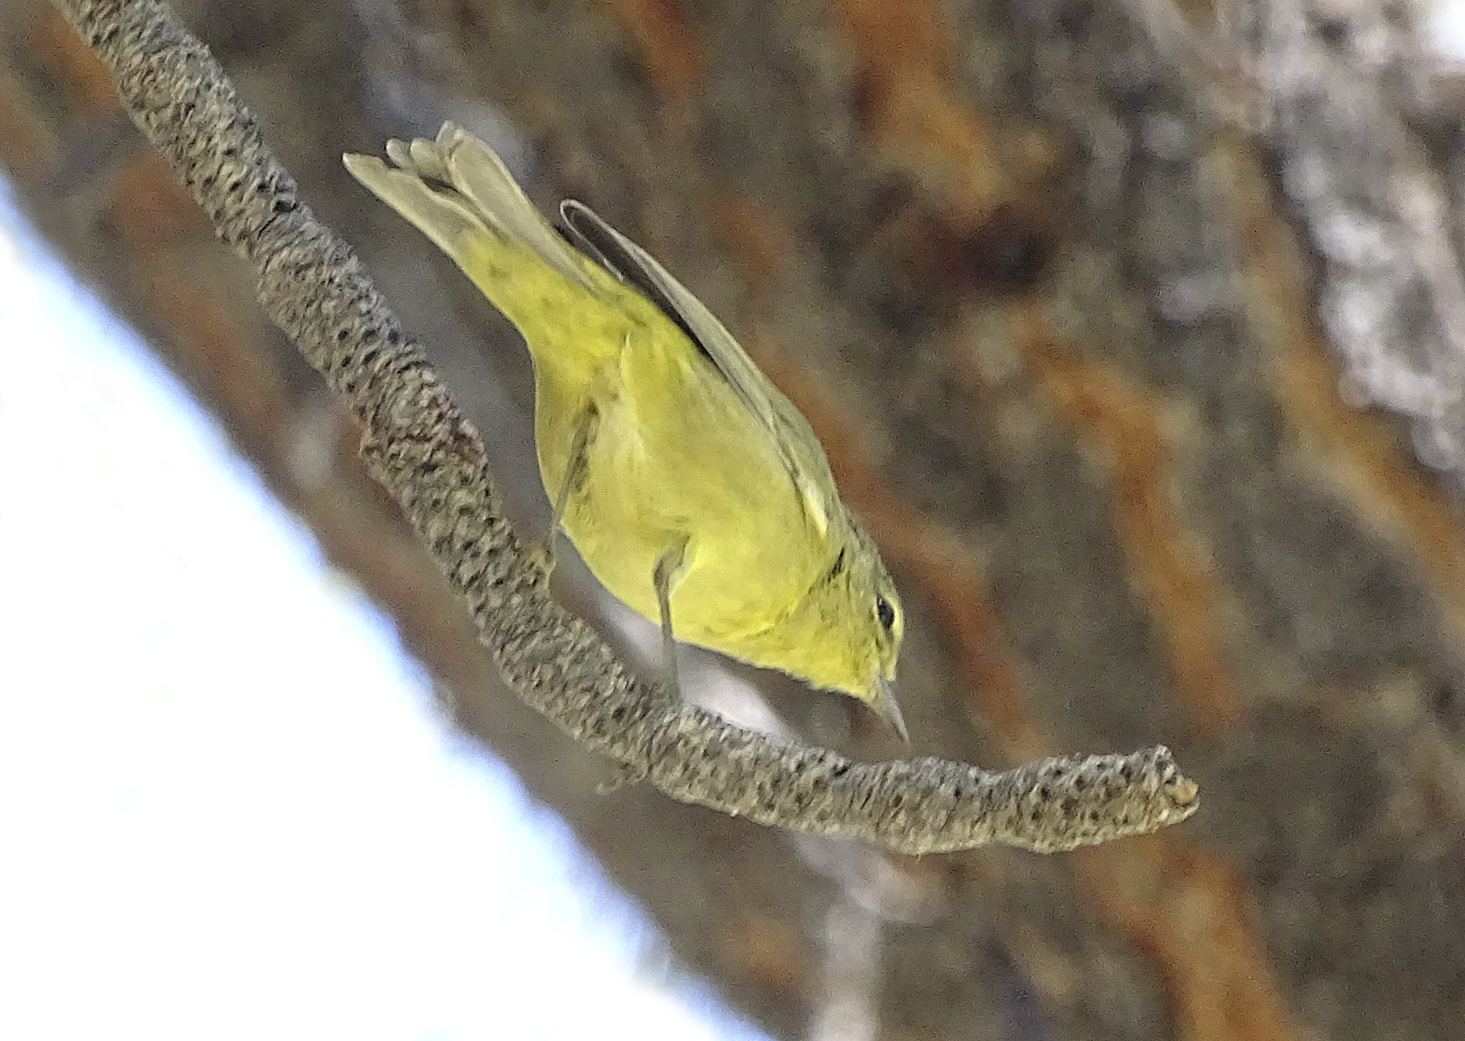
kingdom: Animalia
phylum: Chordata
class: Aves
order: Passeriformes
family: Parulidae
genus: Leiothlypis
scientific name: Leiothlypis celata
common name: Orange-crowned warbler
